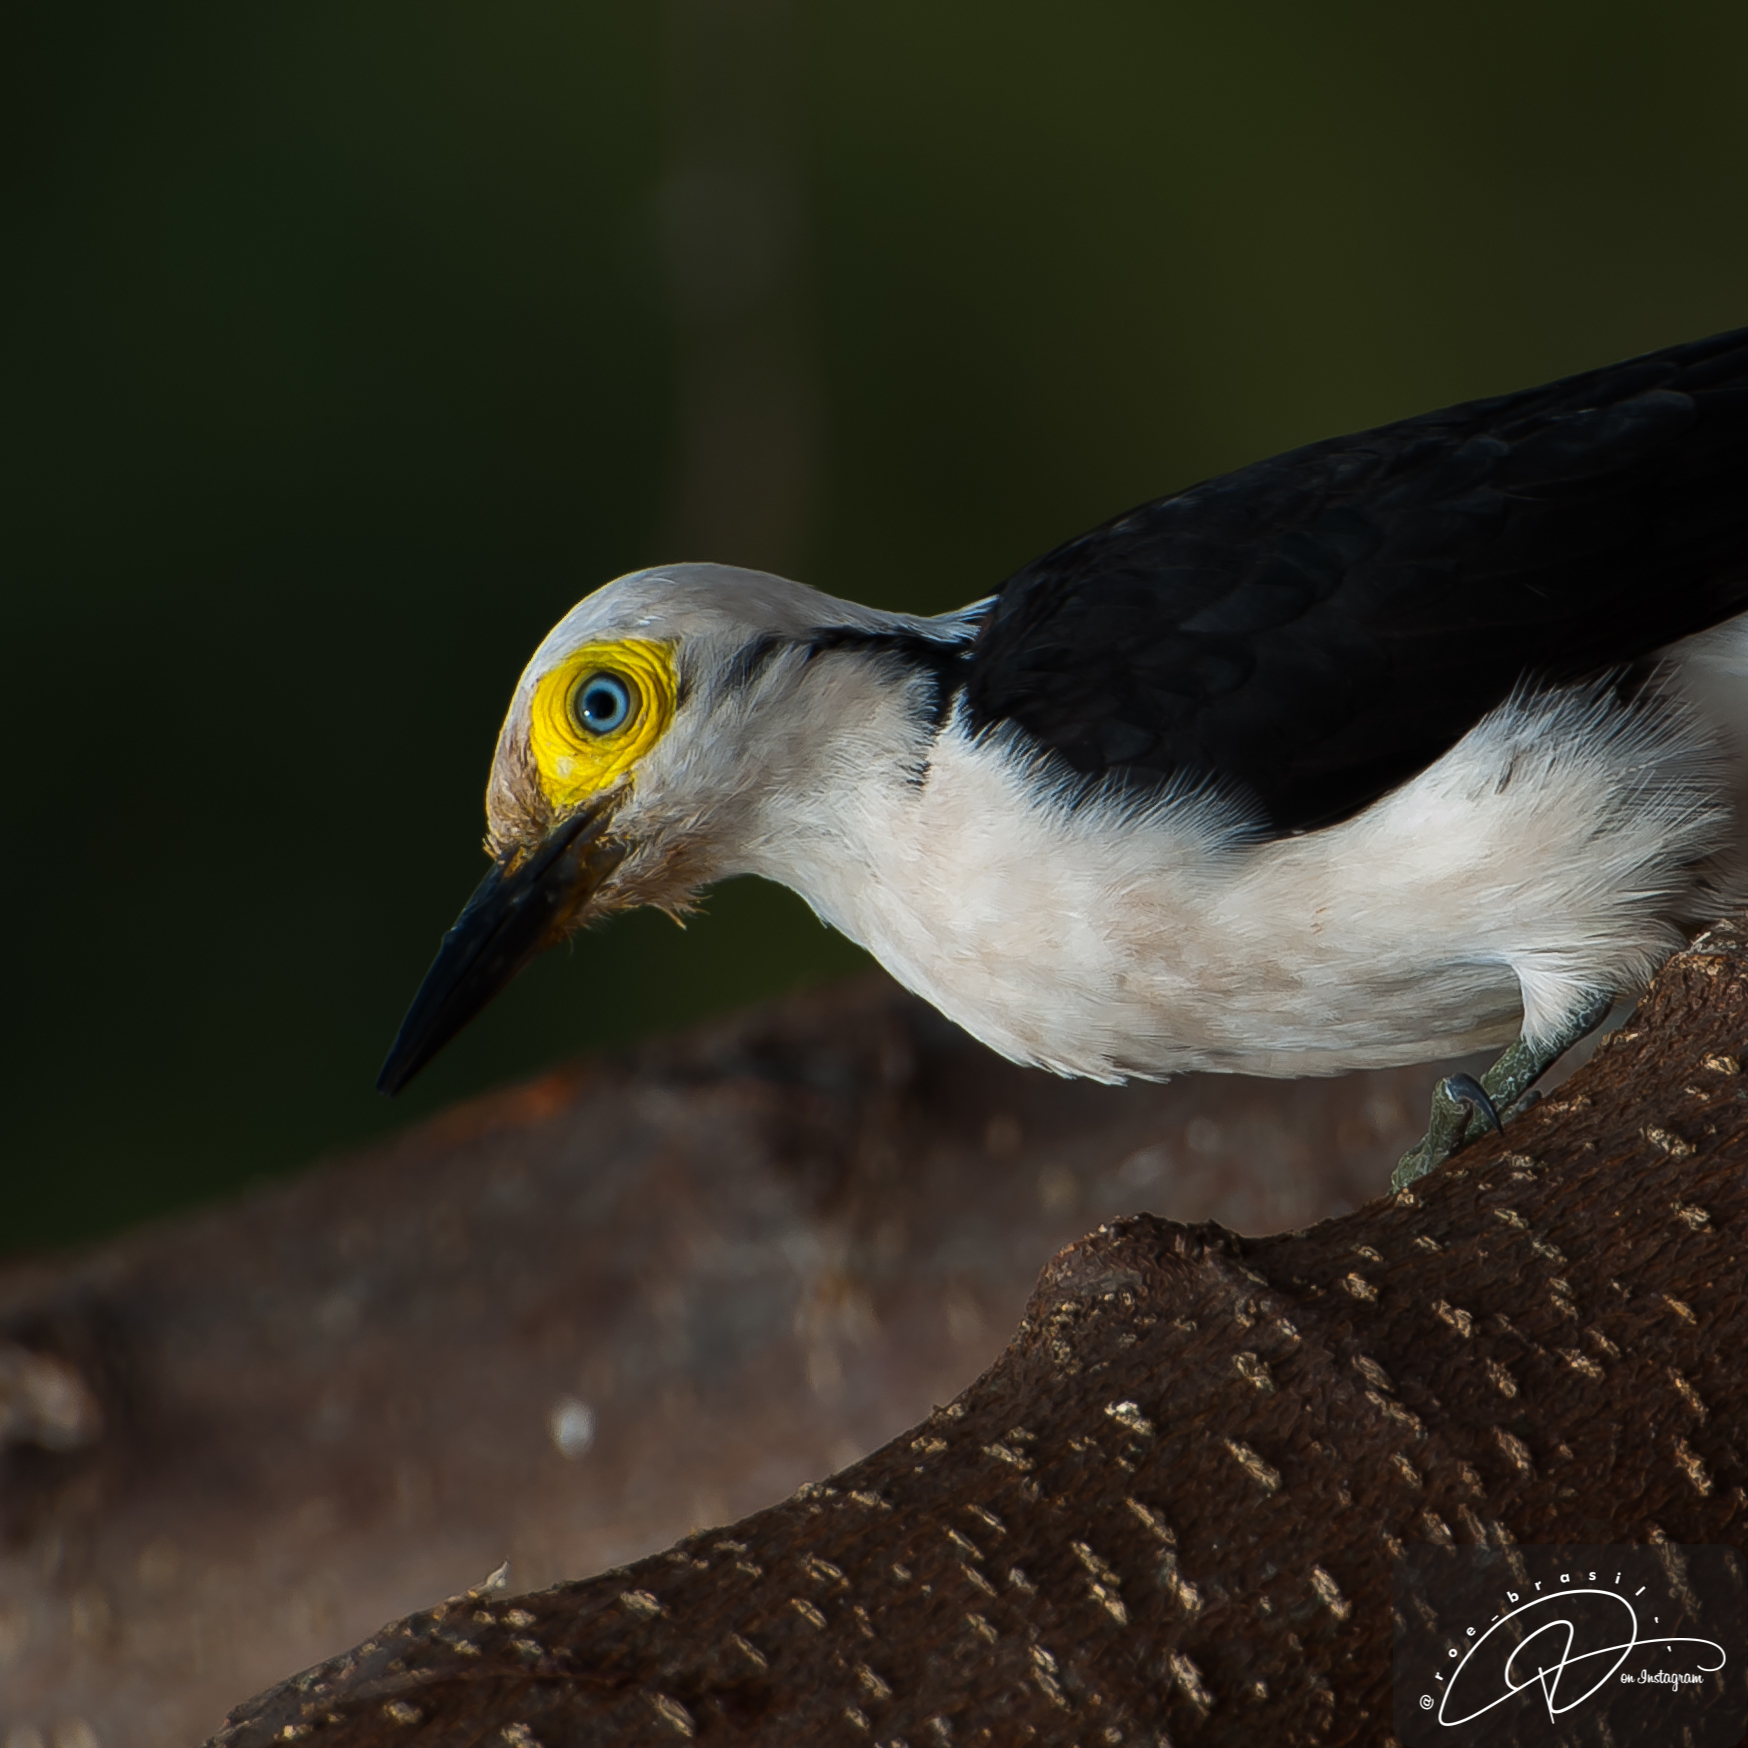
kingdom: Animalia
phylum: Chordata
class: Aves
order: Piciformes
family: Picidae
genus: Melanerpes
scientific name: Melanerpes candidus
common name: White woodpecker
